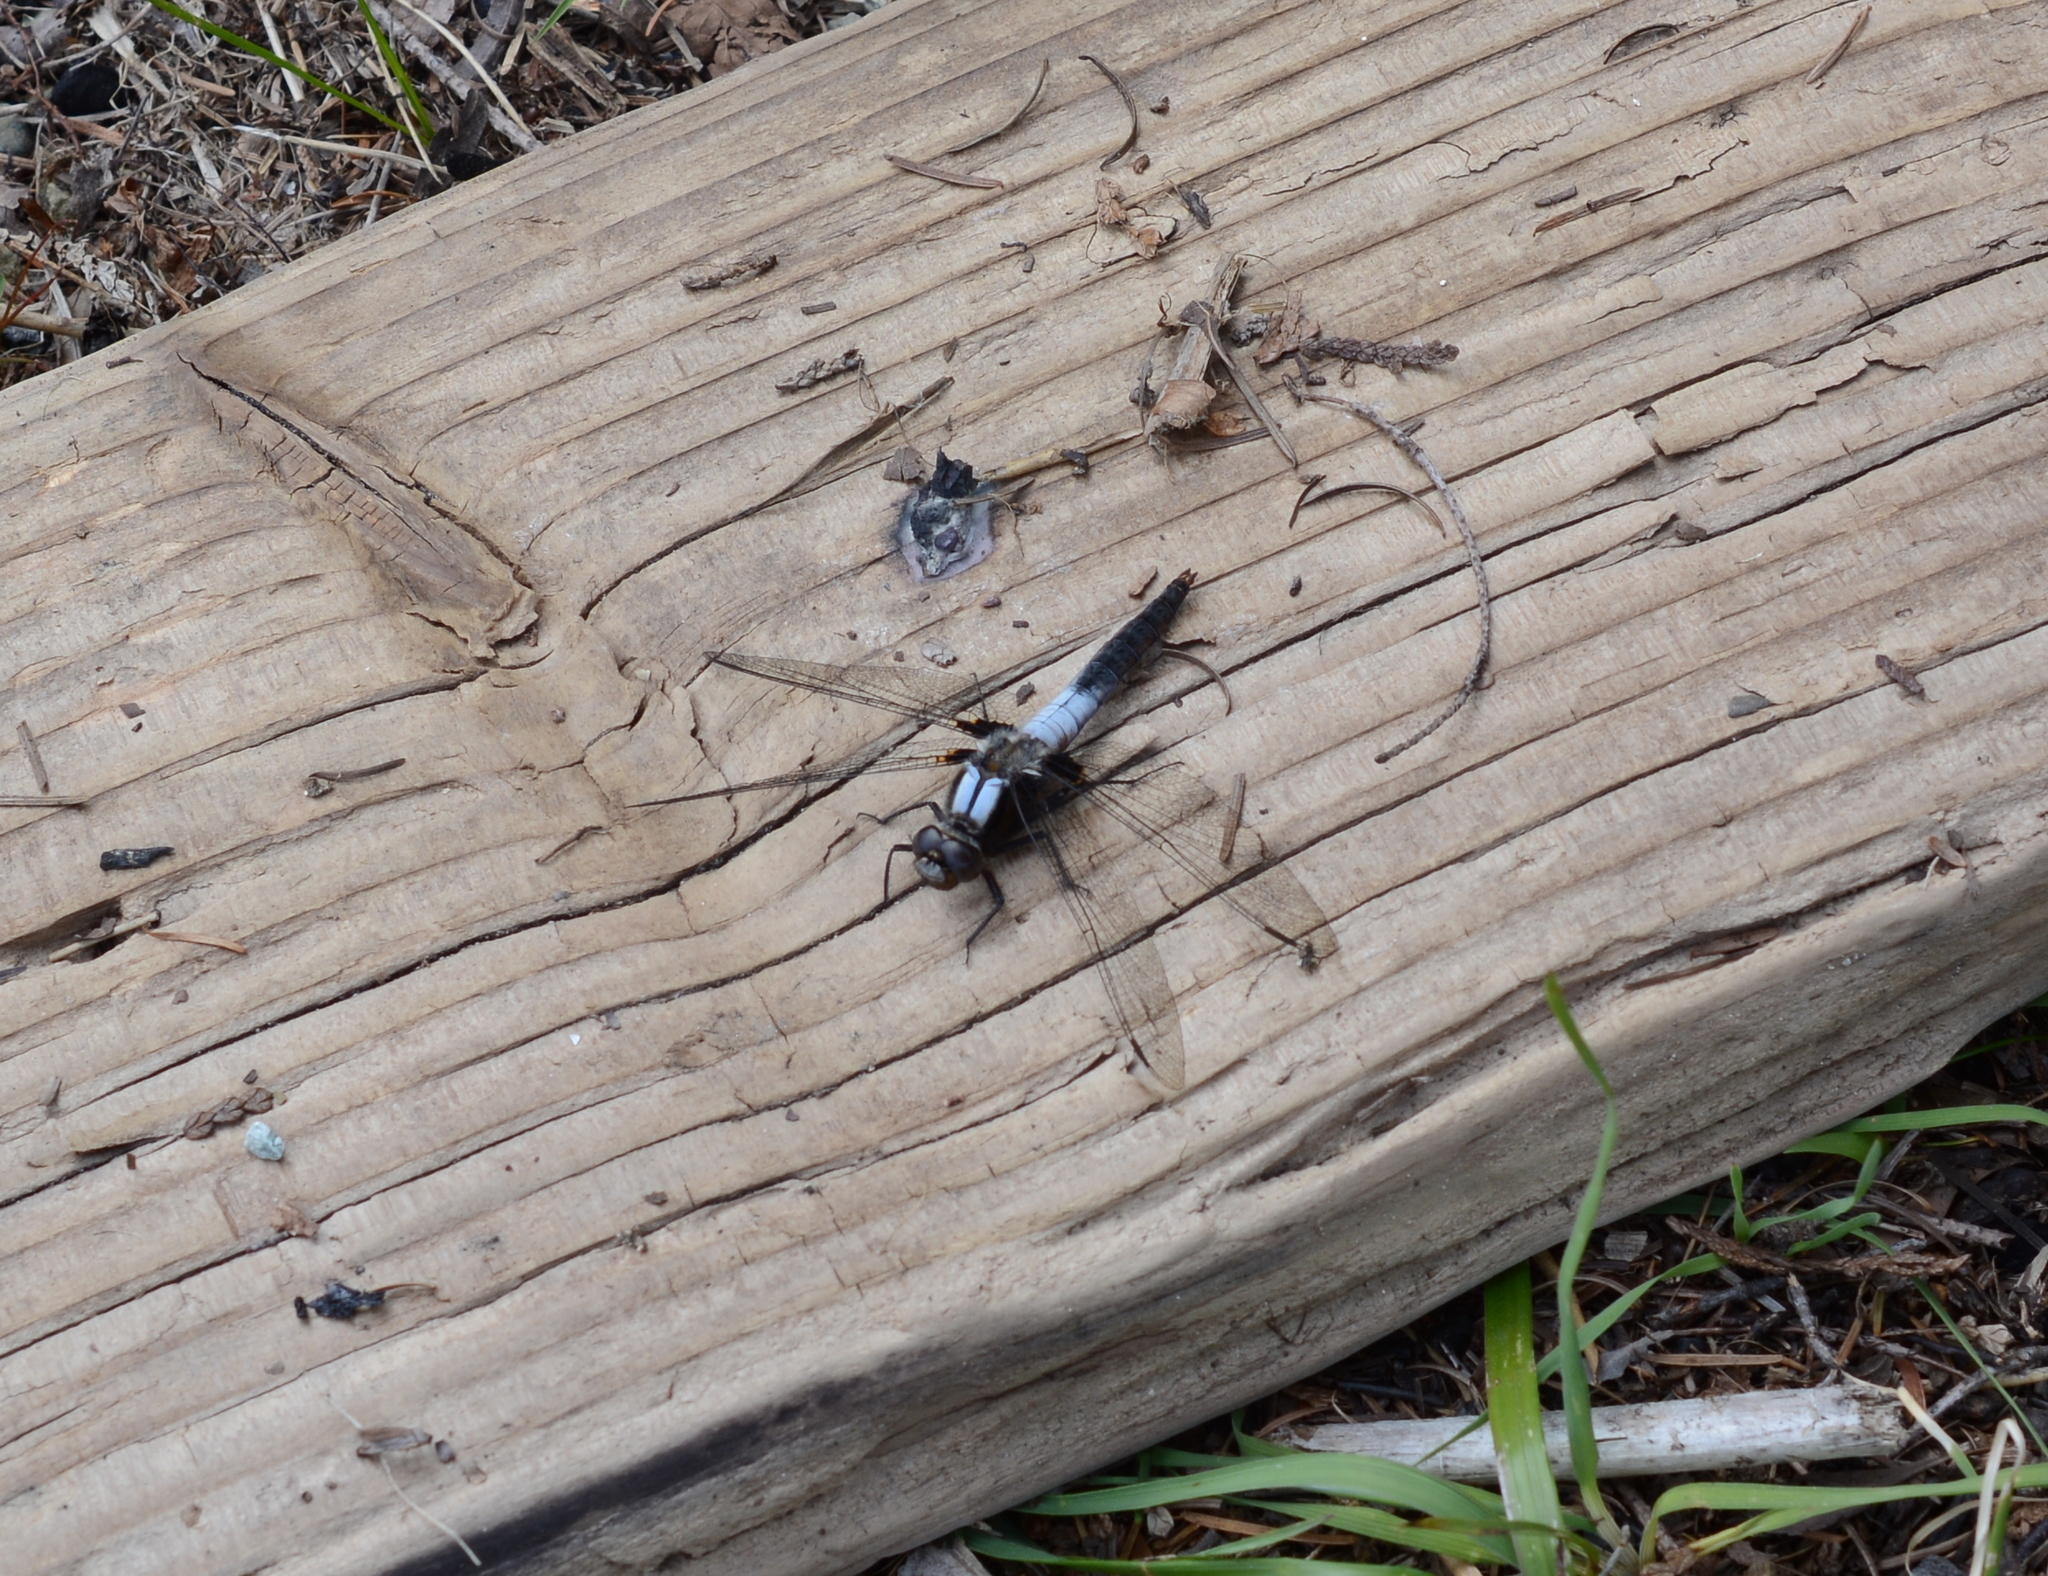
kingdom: Animalia
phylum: Arthropoda
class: Insecta
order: Odonata
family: Libellulidae
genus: Ladona
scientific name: Ladona julia
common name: Chalk-fronted corporal
